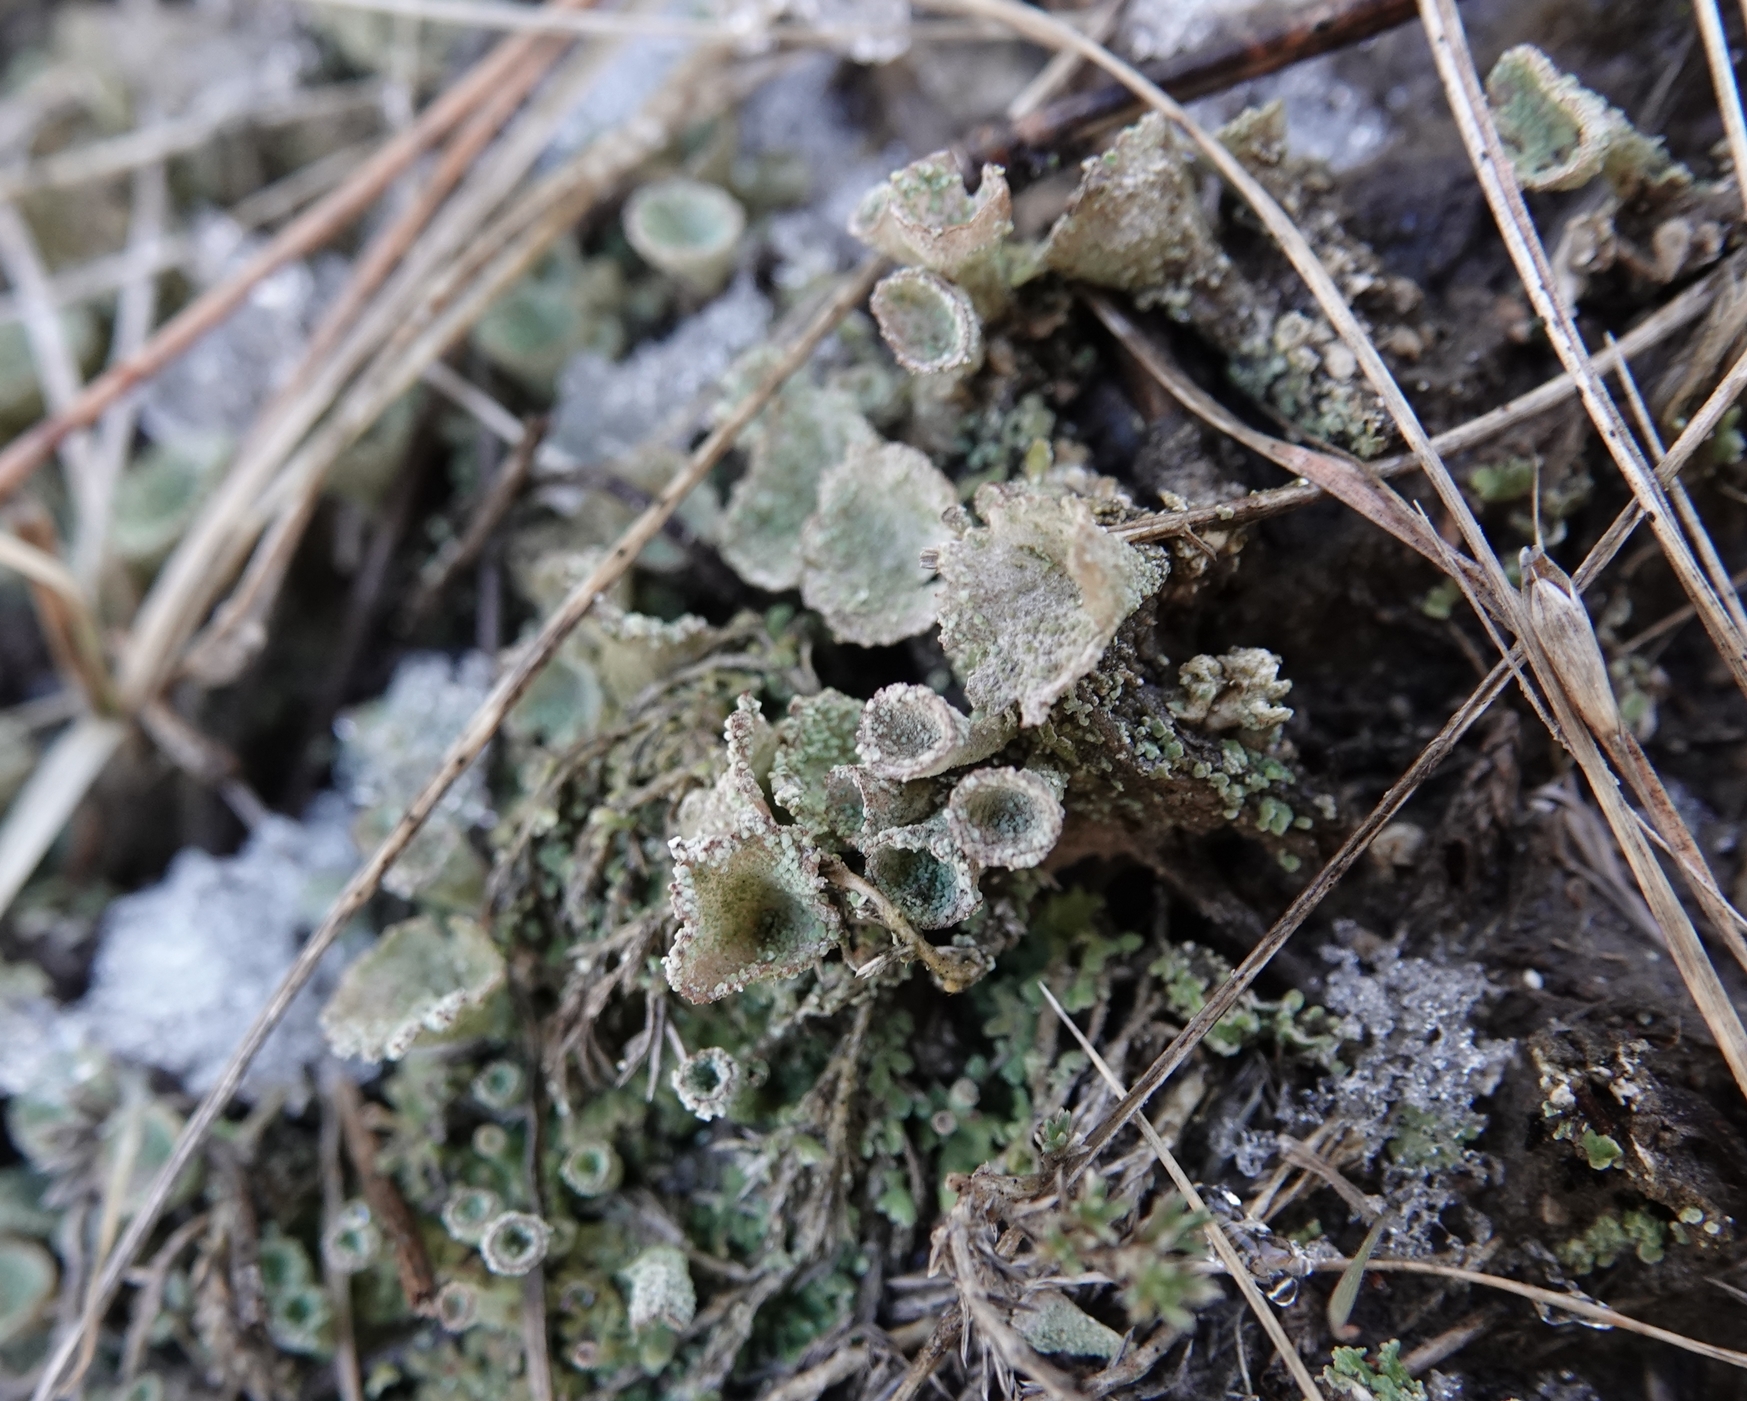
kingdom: Fungi
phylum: Ascomycota
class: Lecanoromycetes
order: Lecanorales
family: Cladoniaceae
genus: Cladonia
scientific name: Cladonia pyxidata
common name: Pebbled pixie cup
